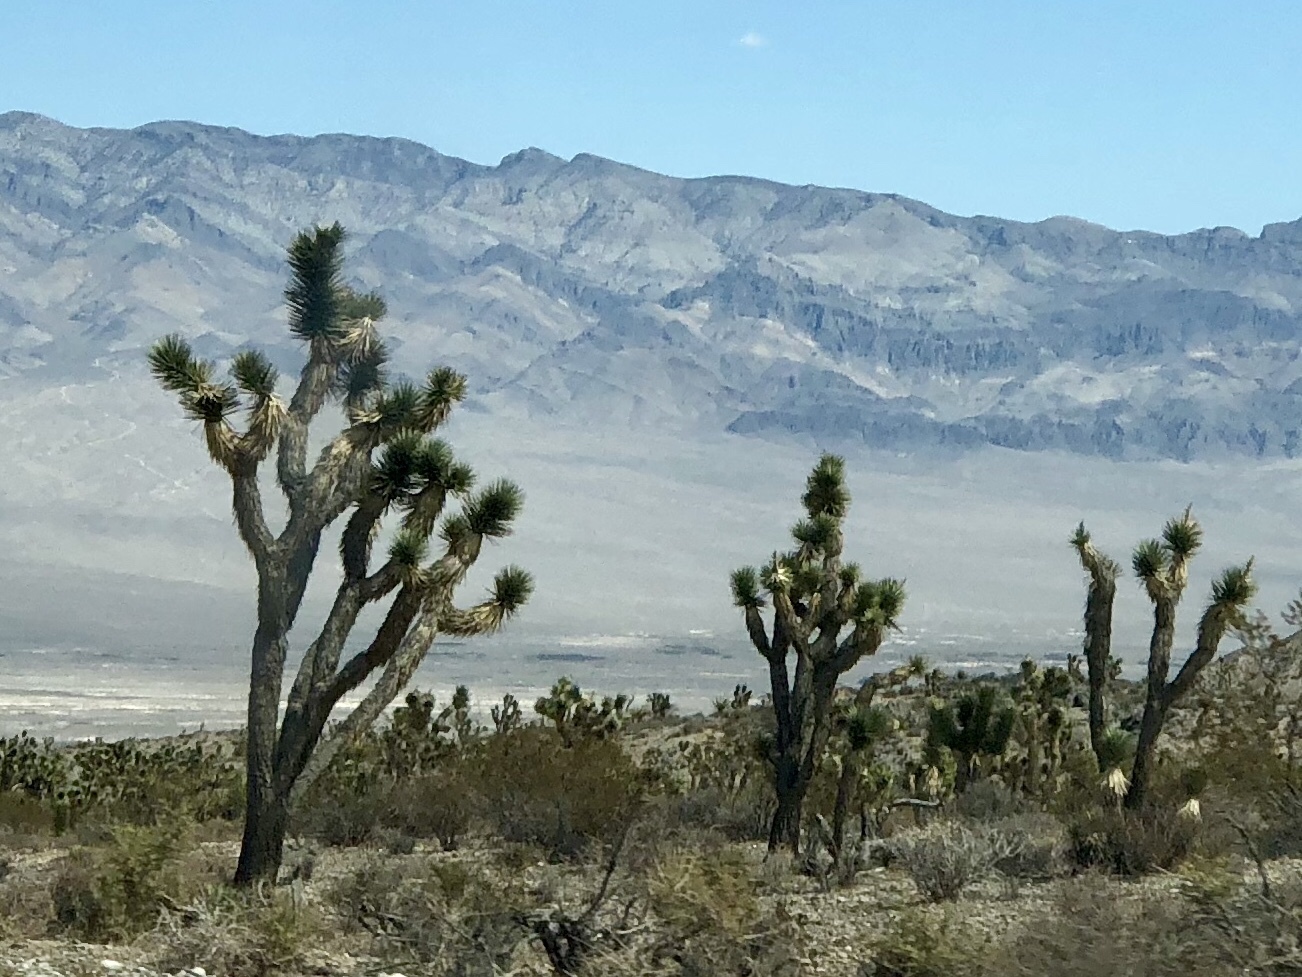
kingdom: Plantae
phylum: Tracheophyta
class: Liliopsida
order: Asparagales
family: Asparagaceae
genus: Yucca
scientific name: Yucca brevifolia
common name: Joshua tree
